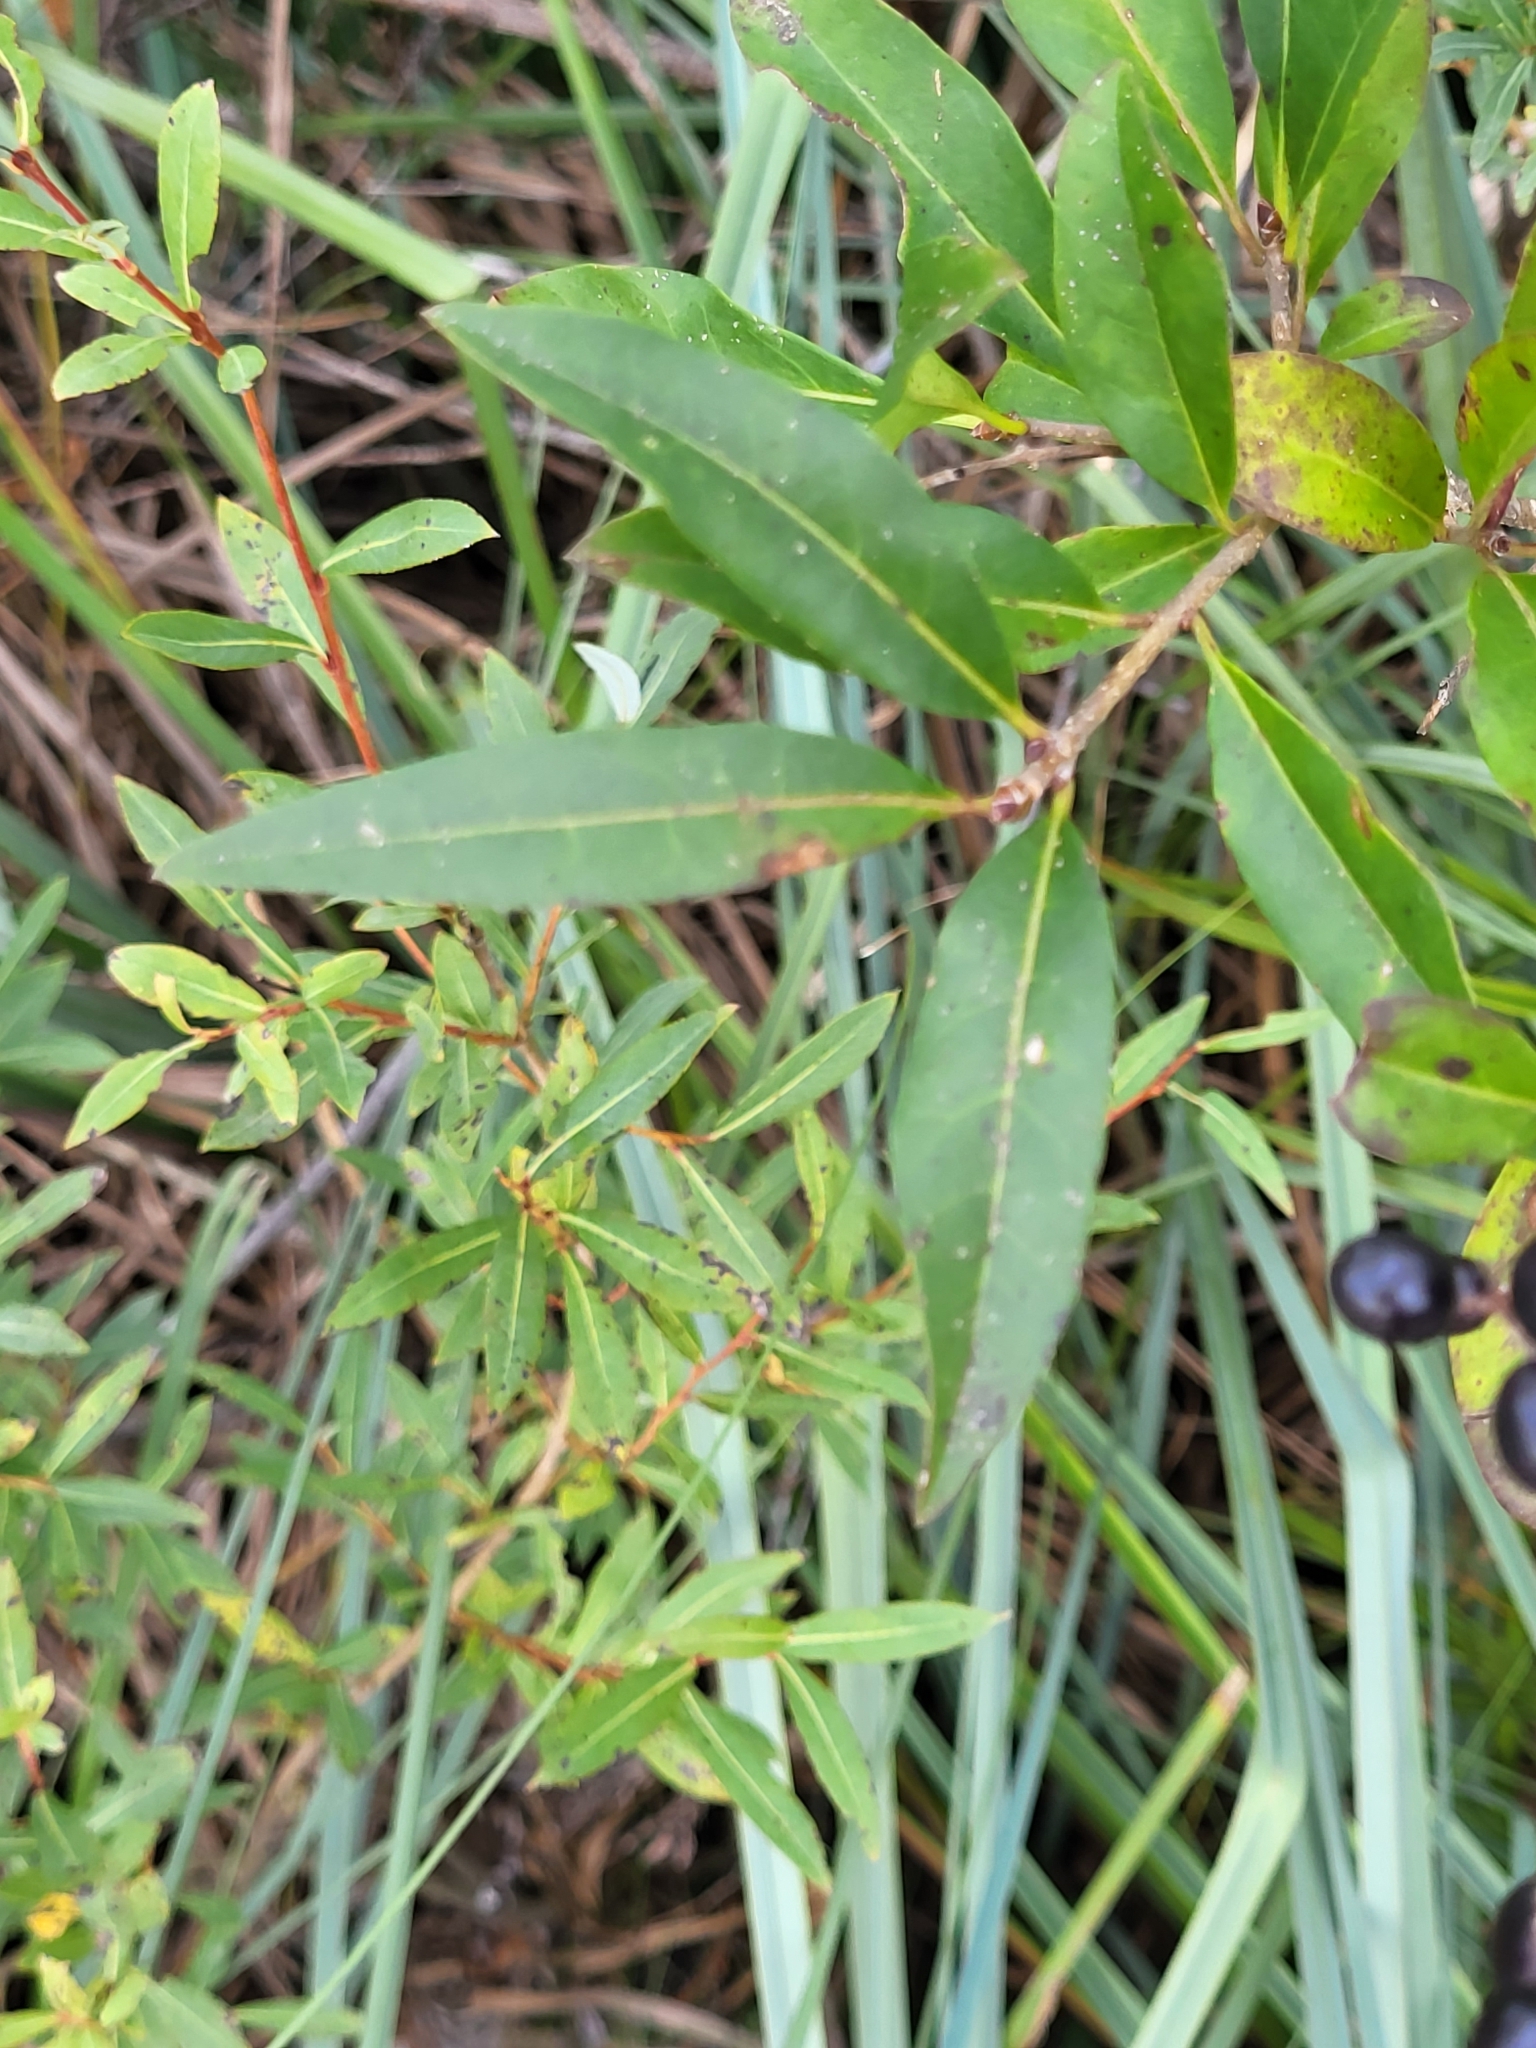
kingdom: Plantae
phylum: Tracheophyta
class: Magnoliopsida
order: Lamiales
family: Oleaceae
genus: Ligustrum
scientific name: Ligustrum vulgare
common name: Wild privet
